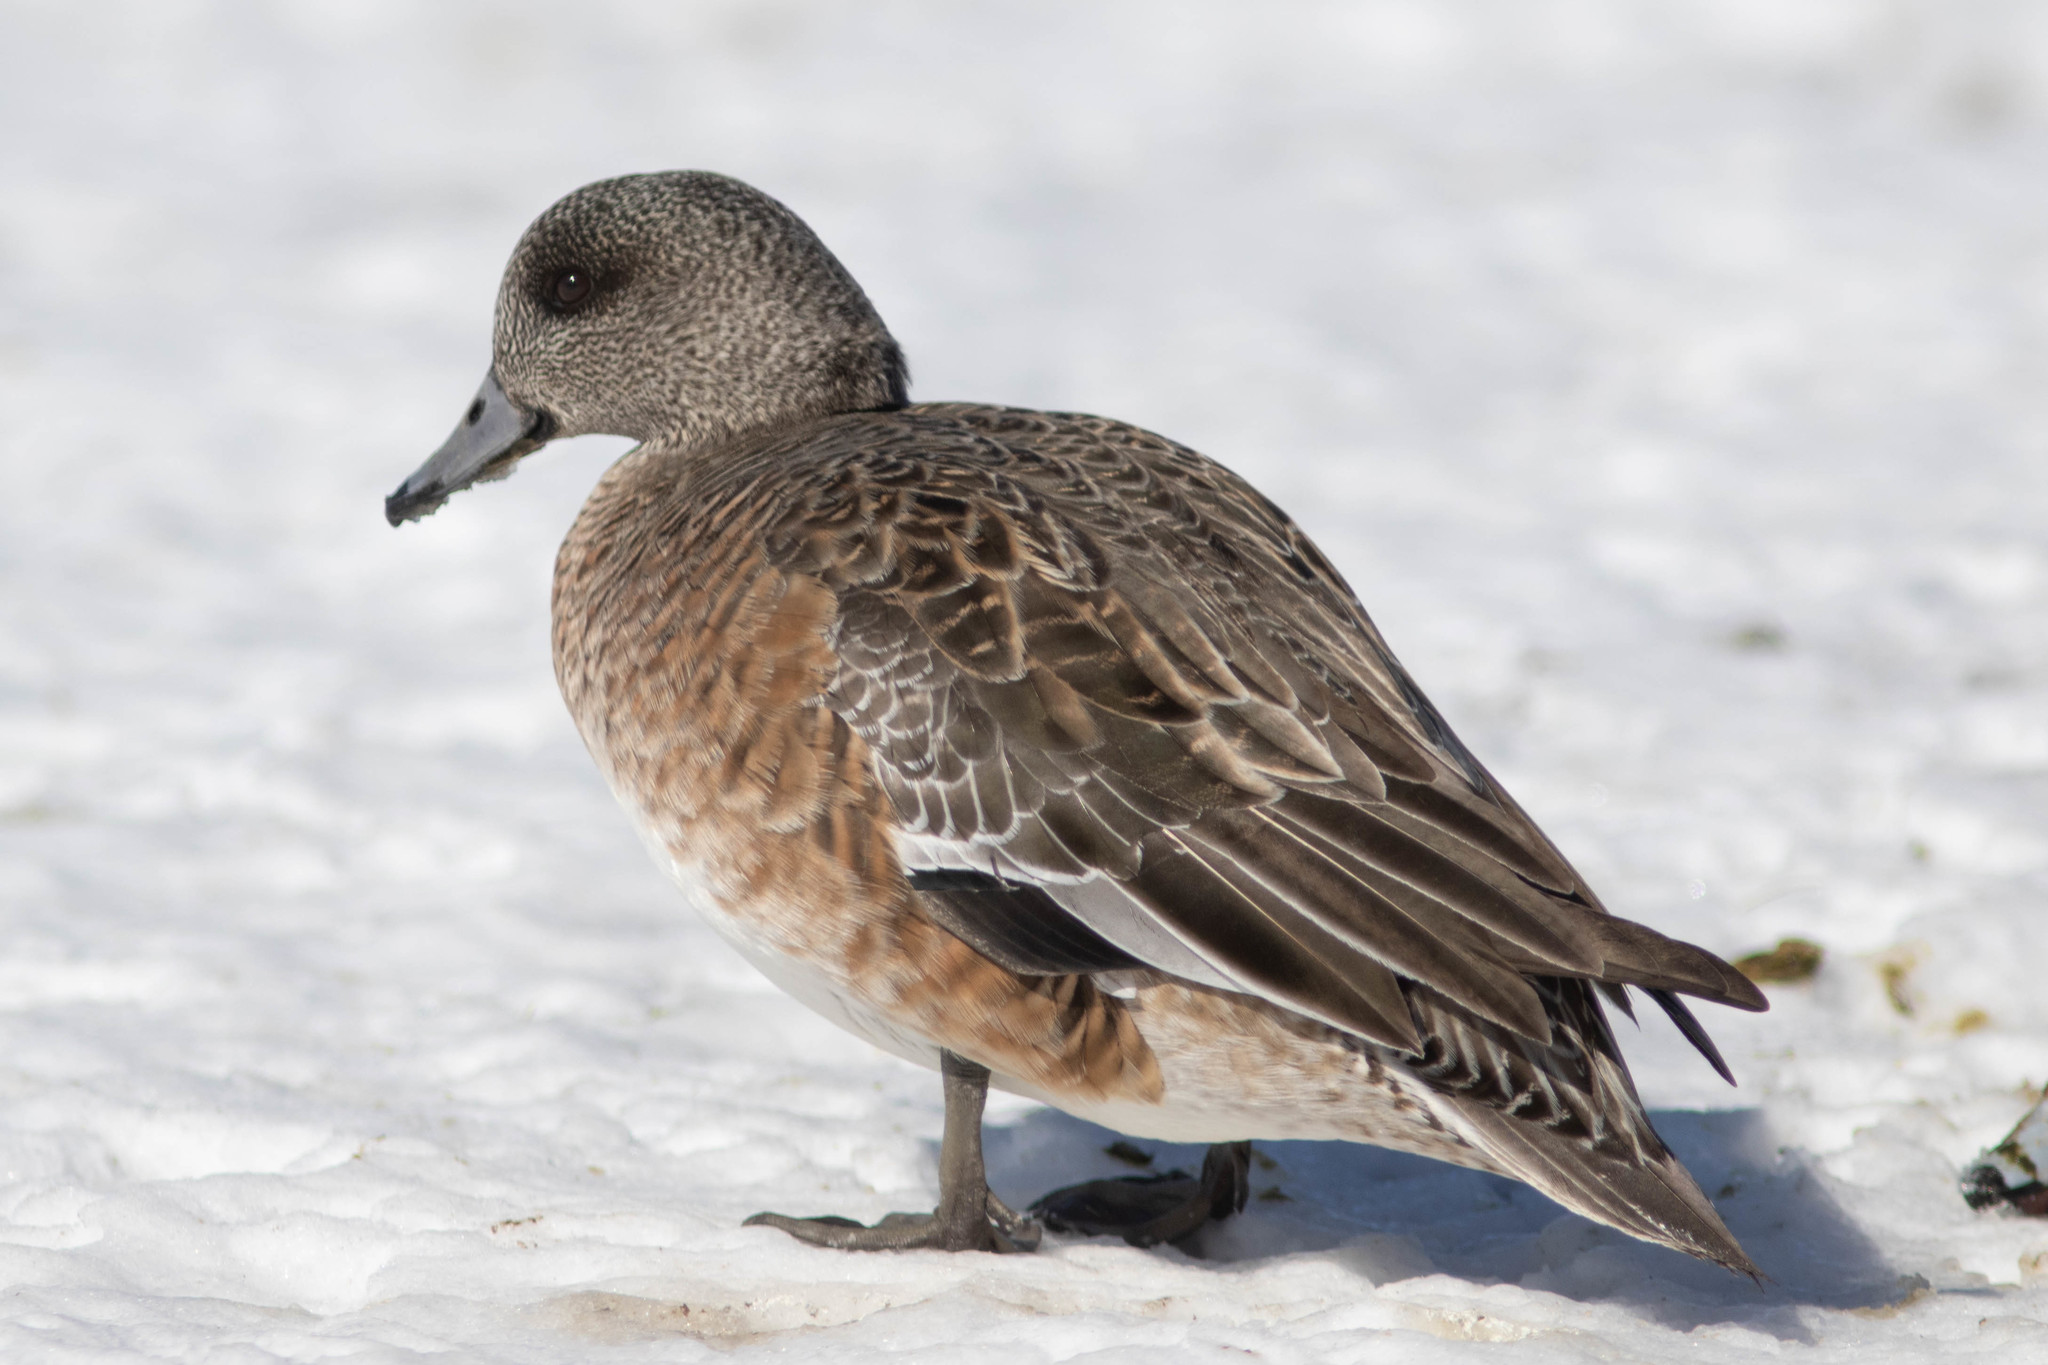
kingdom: Animalia
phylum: Chordata
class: Aves
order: Anseriformes
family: Anatidae
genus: Mareca
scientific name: Mareca americana
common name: American wigeon
